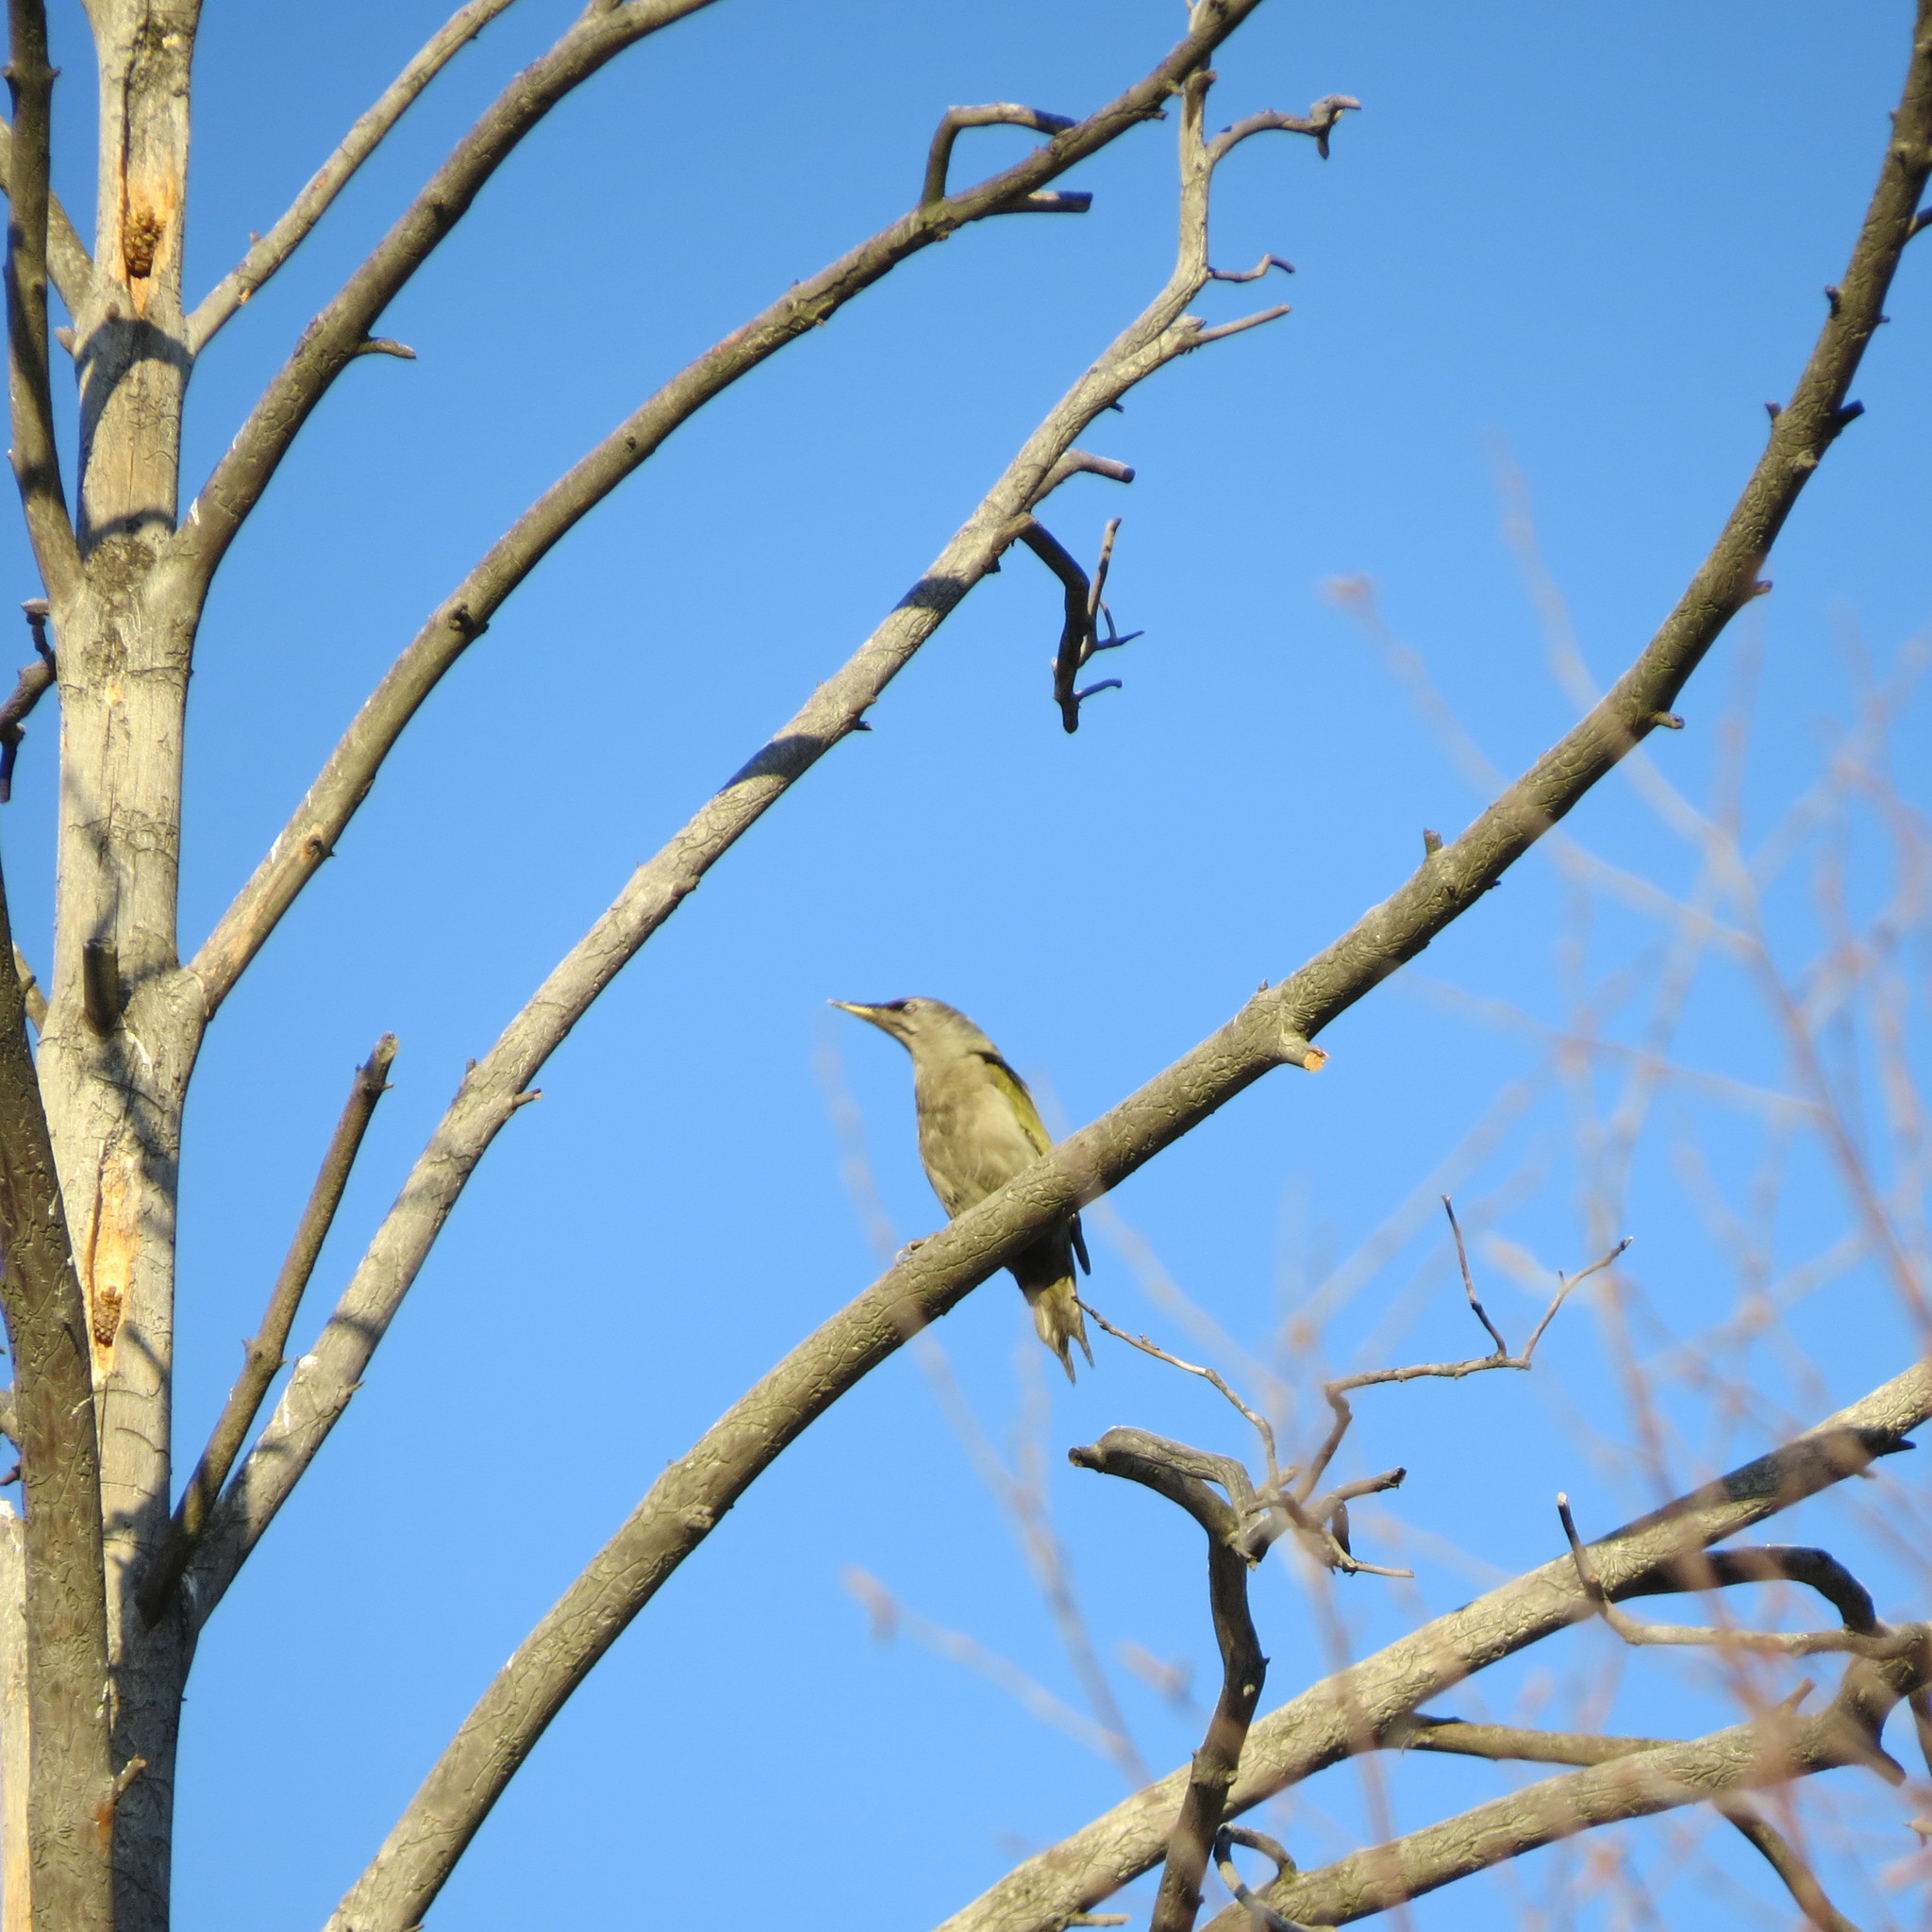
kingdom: Animalia
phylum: Chordata
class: Aves
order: Piciformes
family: Picidae
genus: Picus
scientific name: Picus canus
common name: Grey-headed woodpecker
